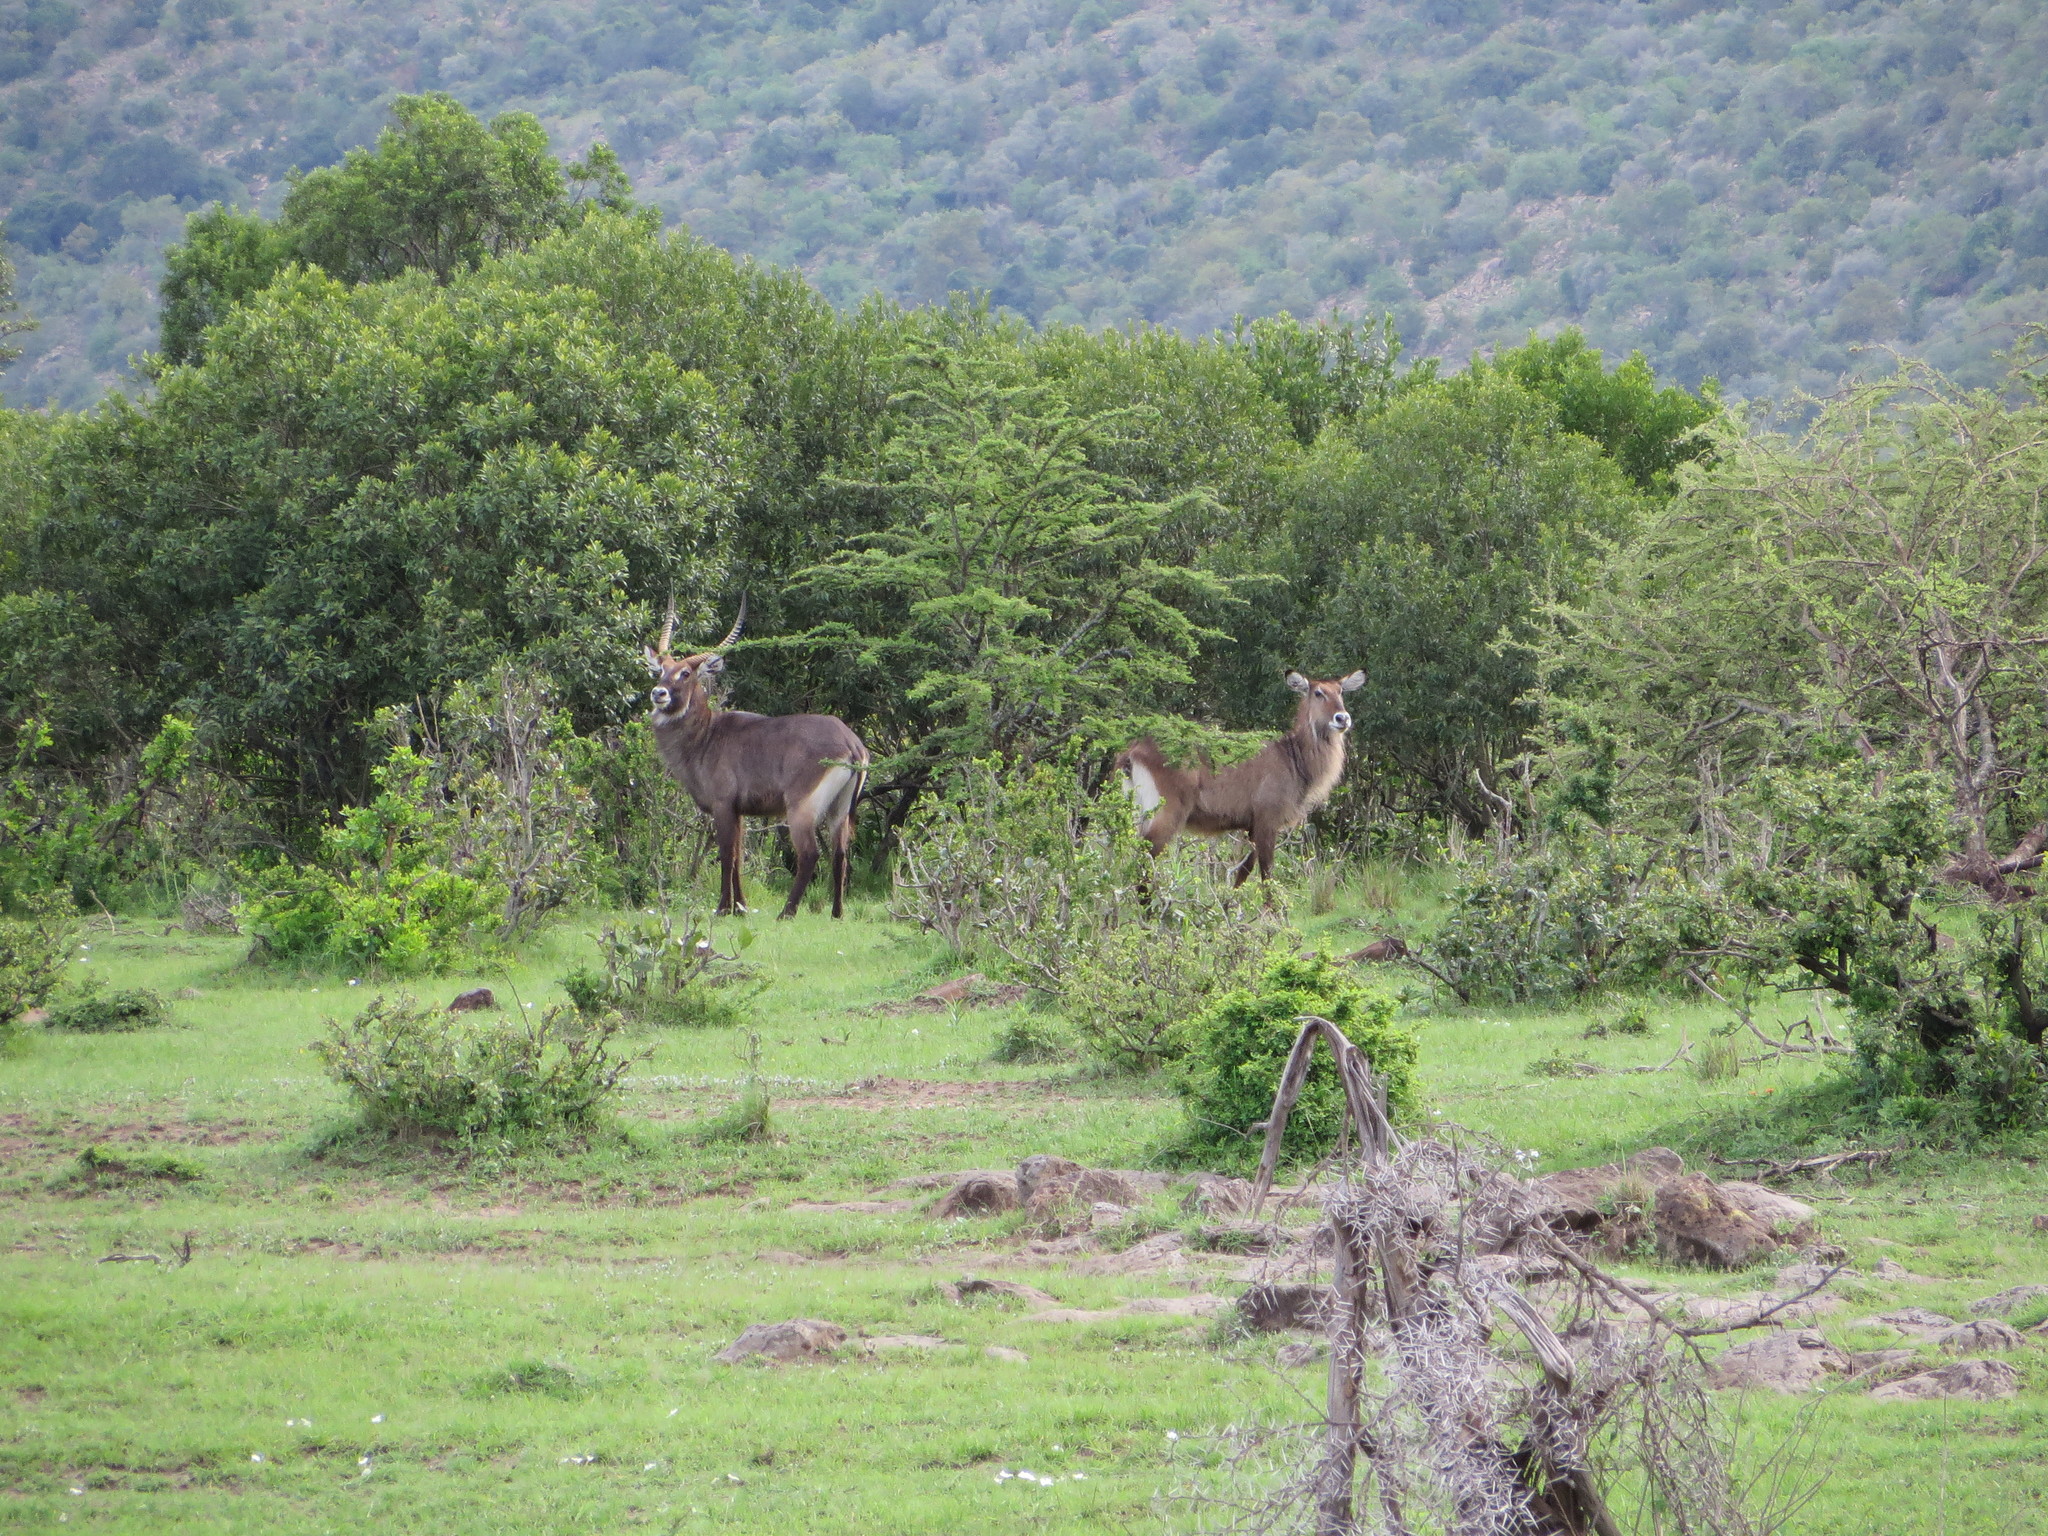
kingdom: Animalia
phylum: Chordata
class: Mammalia
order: Artiodactyla
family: Bovidae
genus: Kobus
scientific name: Kobus ellipsiprymnus
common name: Waterbuck
